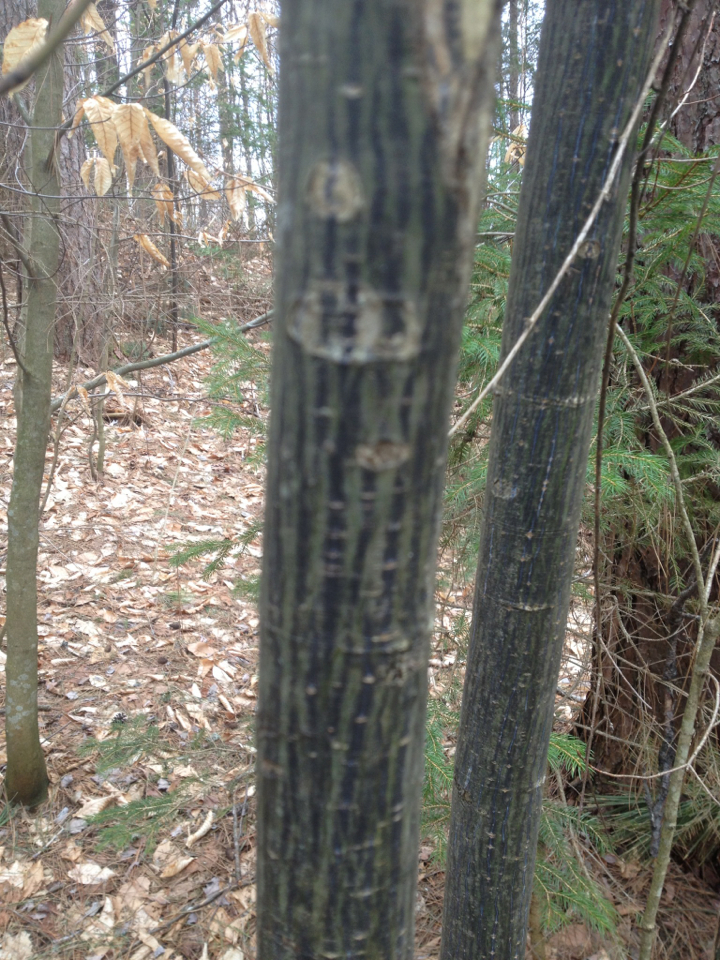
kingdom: Plantae
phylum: Tracheophyta
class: Magnoliopsida
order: Sapindales
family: Sapindaceae
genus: Acer
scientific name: Acer pensylvanicum
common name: Moosewood
